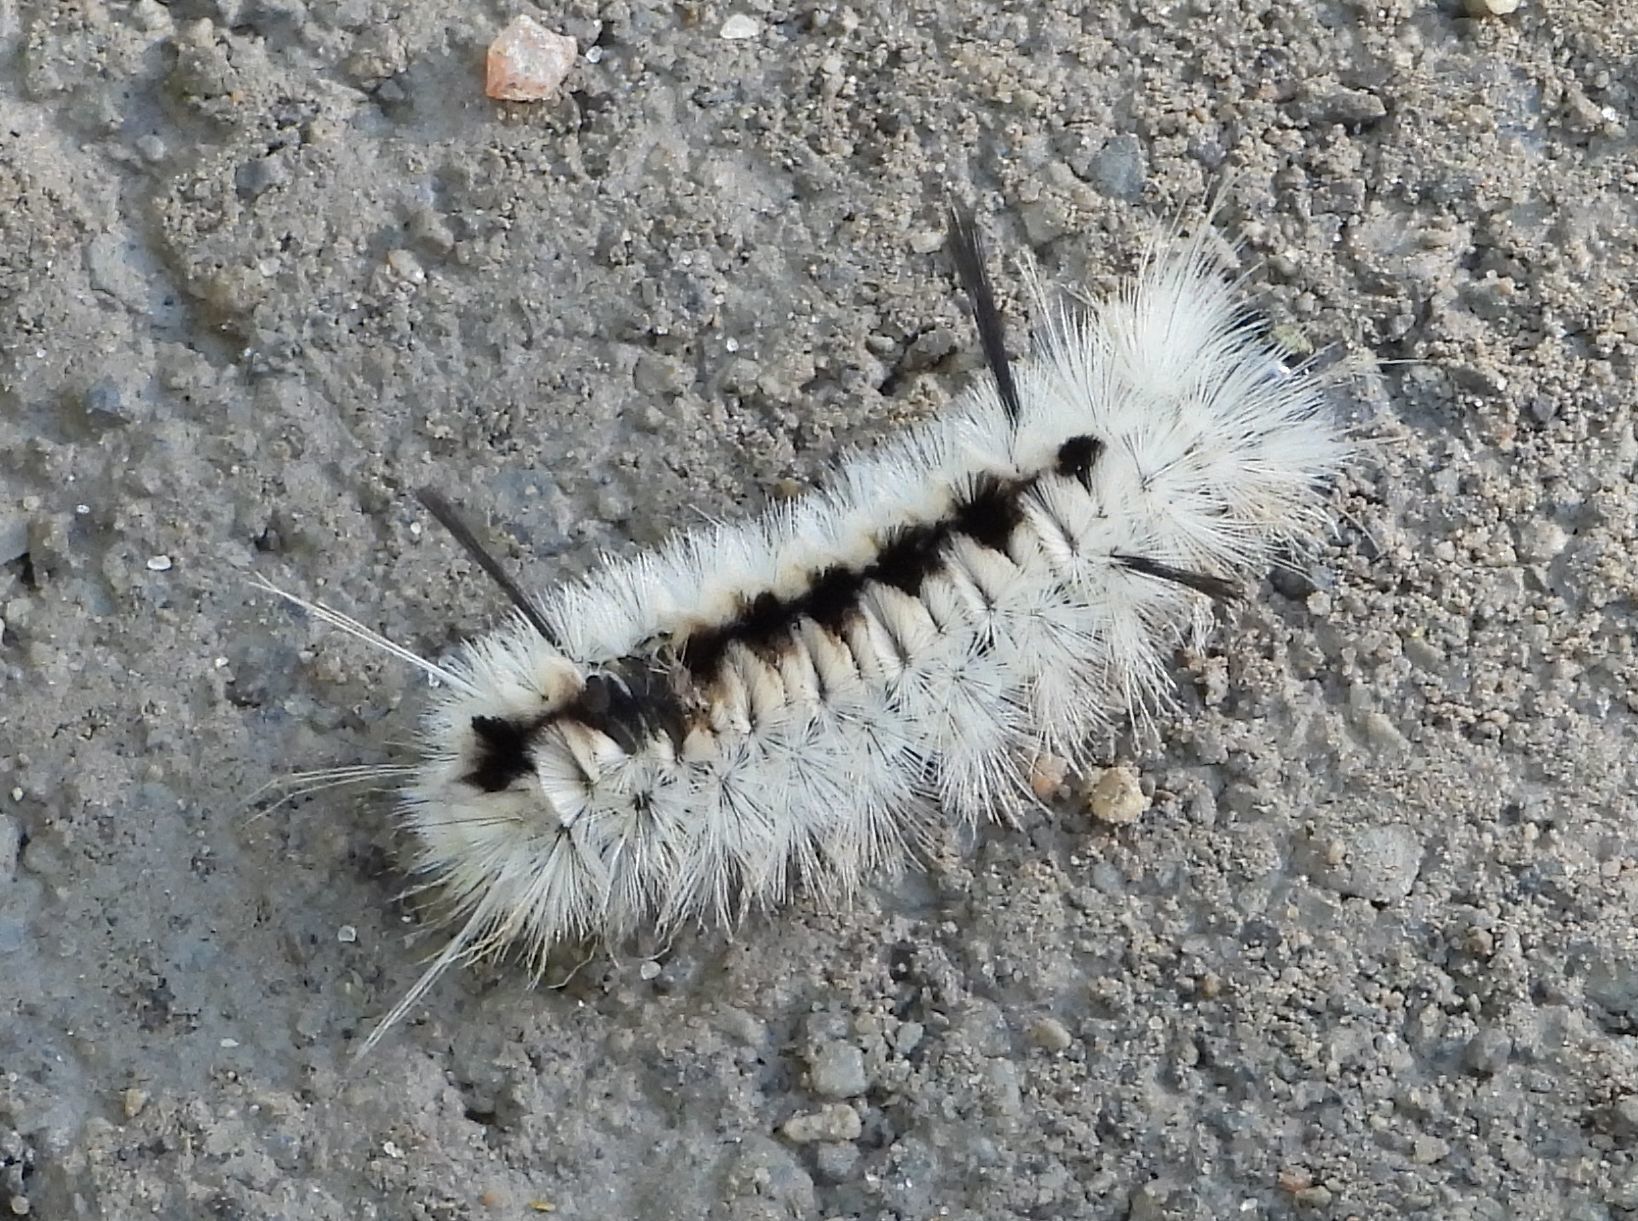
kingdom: Animalia
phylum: Arthropoda
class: Insecta
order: Lepidoptera
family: Erebidae
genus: Lophocampa
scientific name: Lophocampa caryae
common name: Hickory tussock moth
